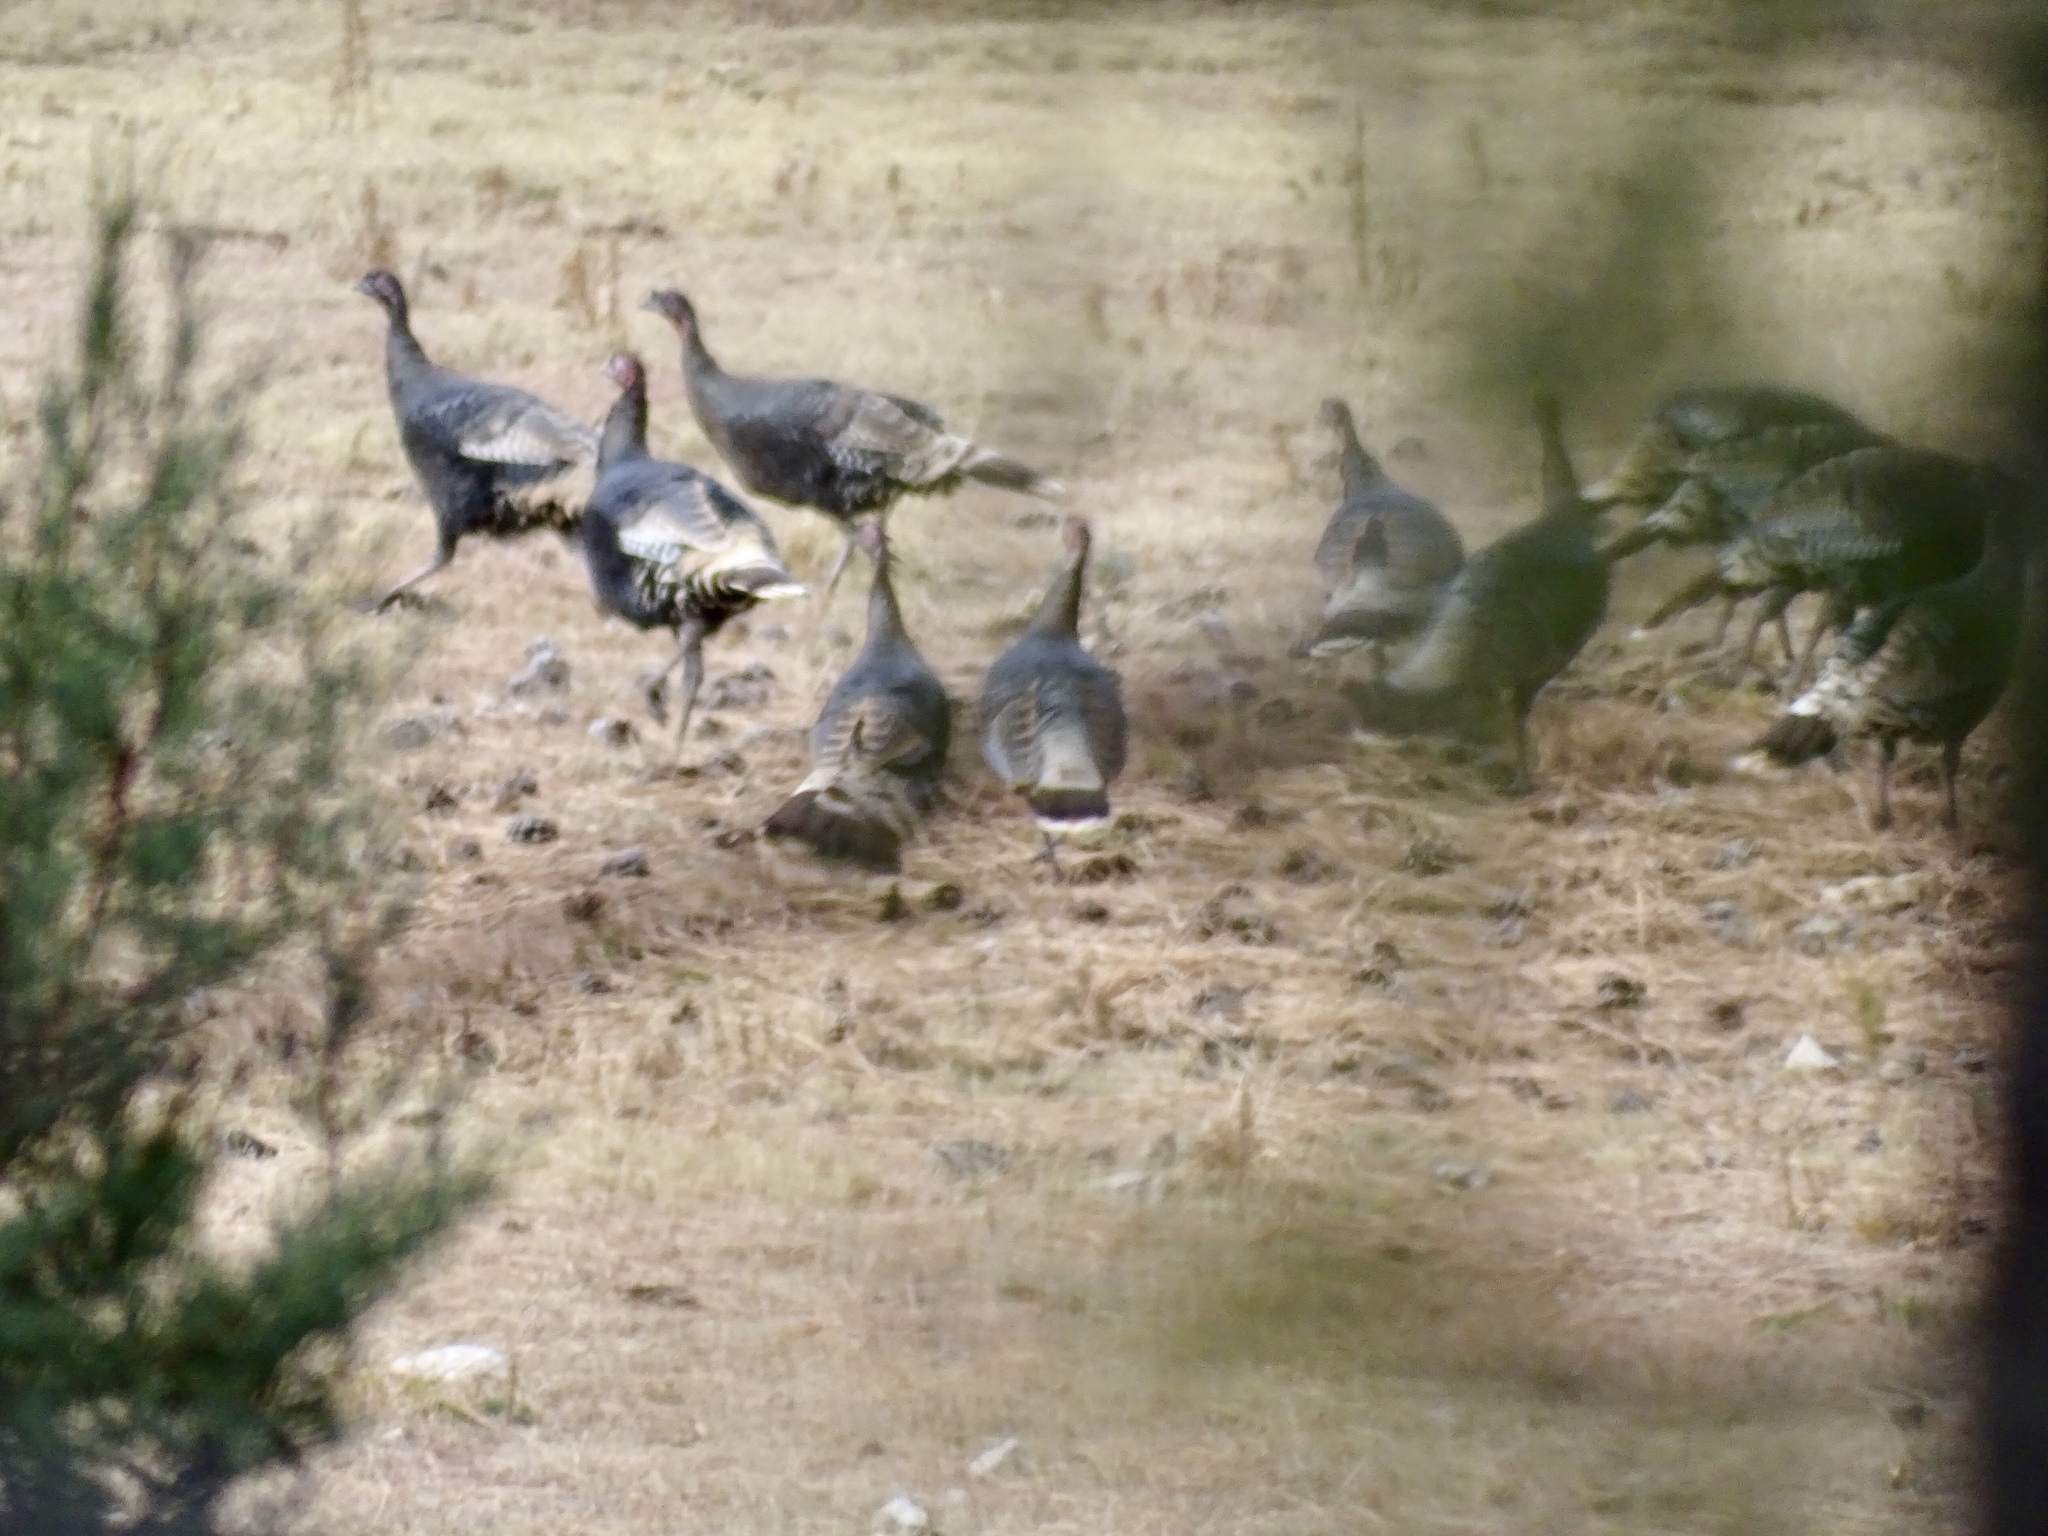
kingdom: Animalia
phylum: Chordata
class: Aves
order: Galliformes
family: Phasianidae
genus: Meleagris
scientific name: Meleagris gallopavo
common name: Wild turkey
